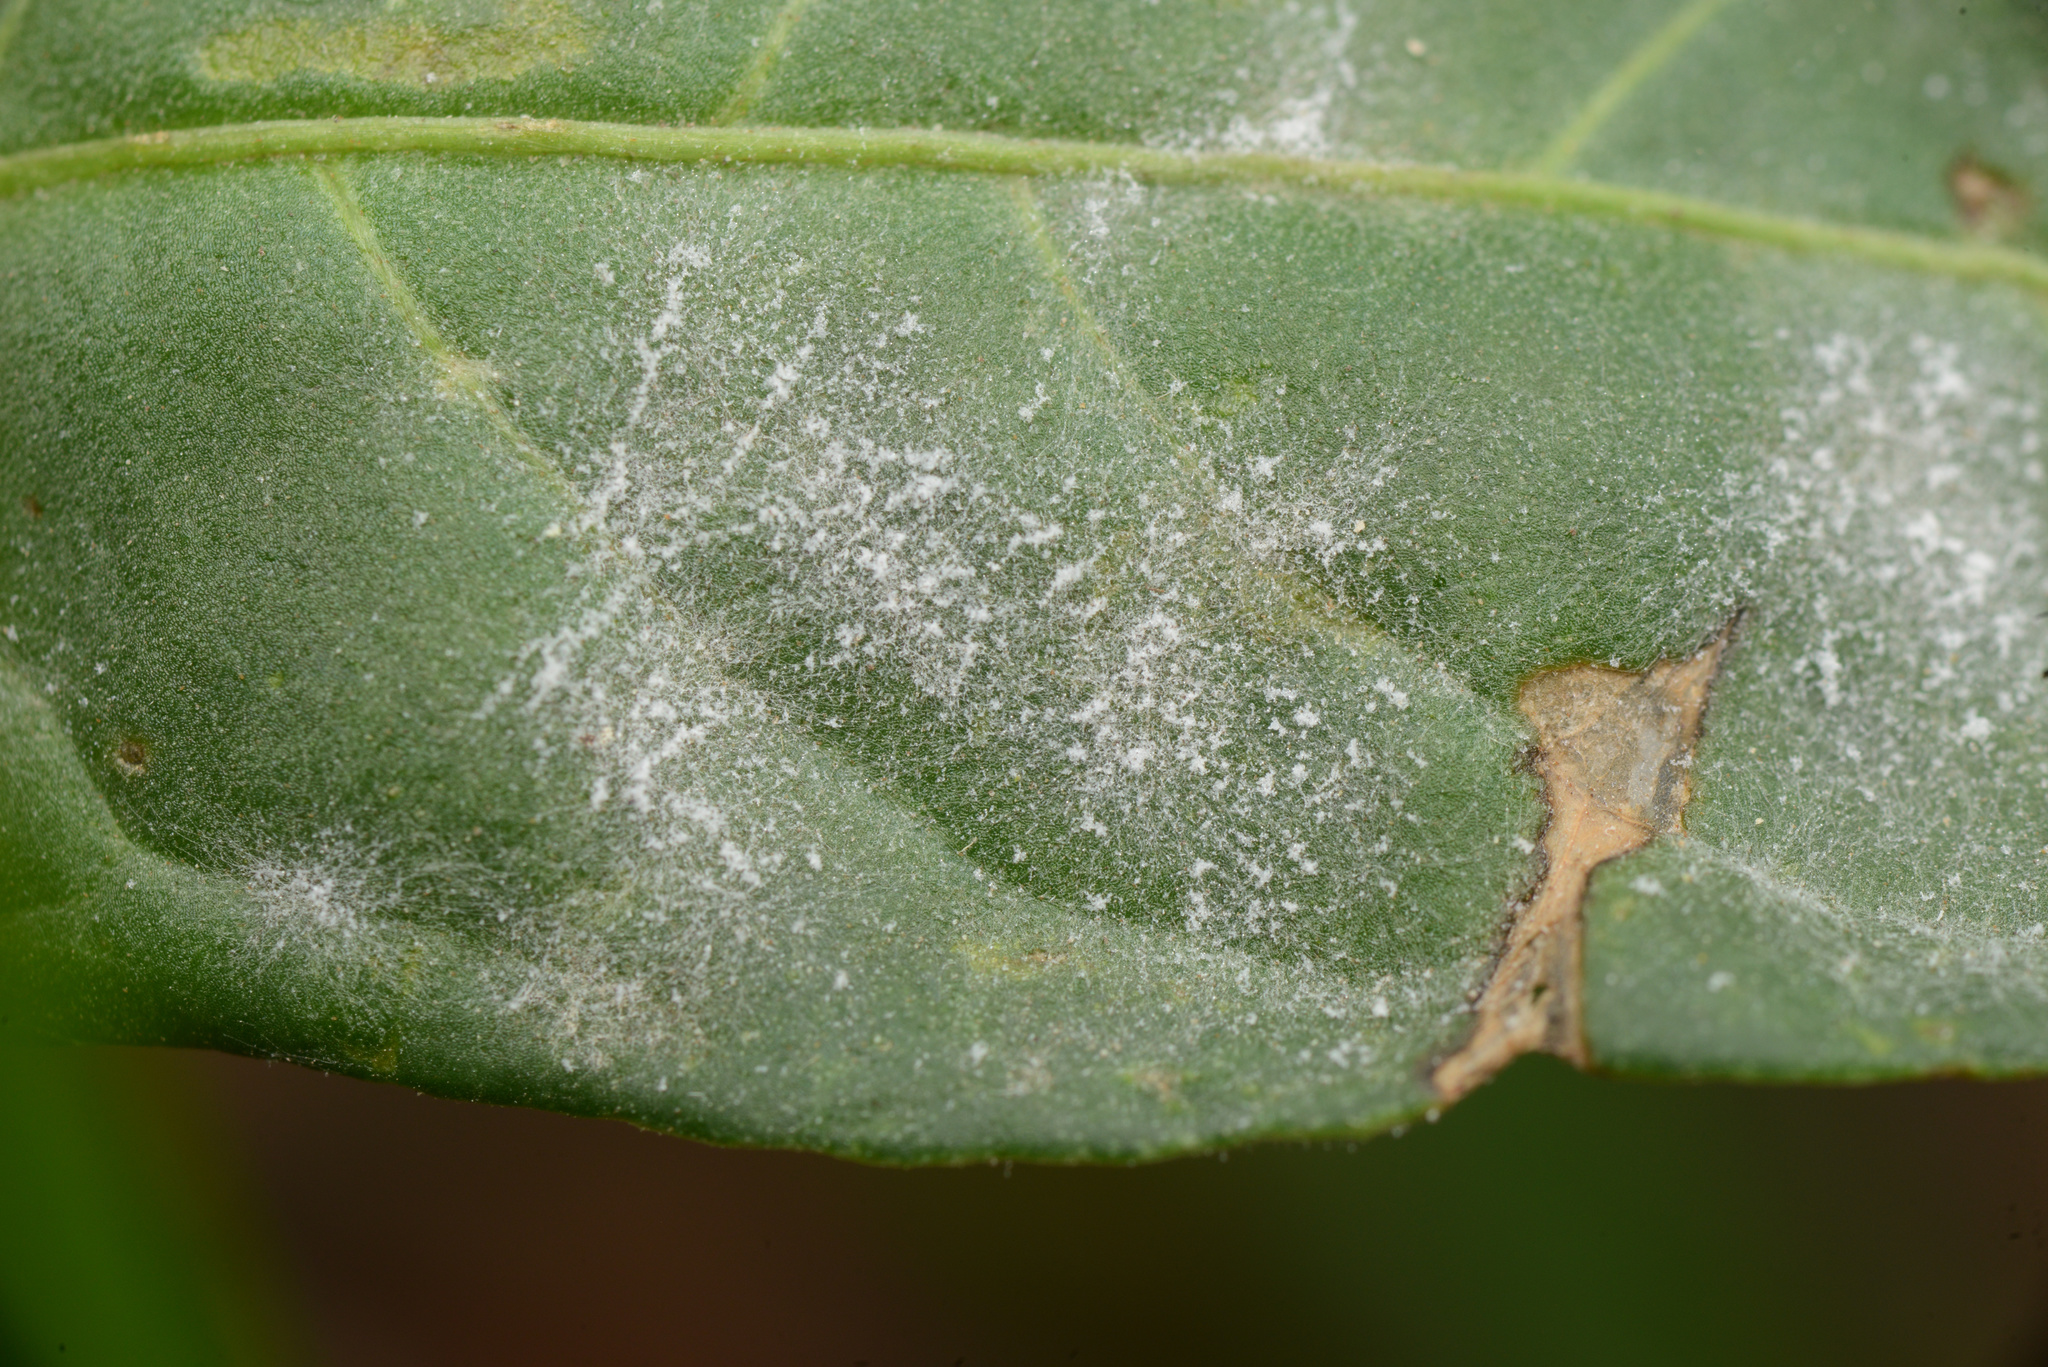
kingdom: Fungi
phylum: Ascomycota
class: Leotiomycetes
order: Helotiales
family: Erysiphaceae
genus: Golovinomyces
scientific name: Golovinomyces longipes
